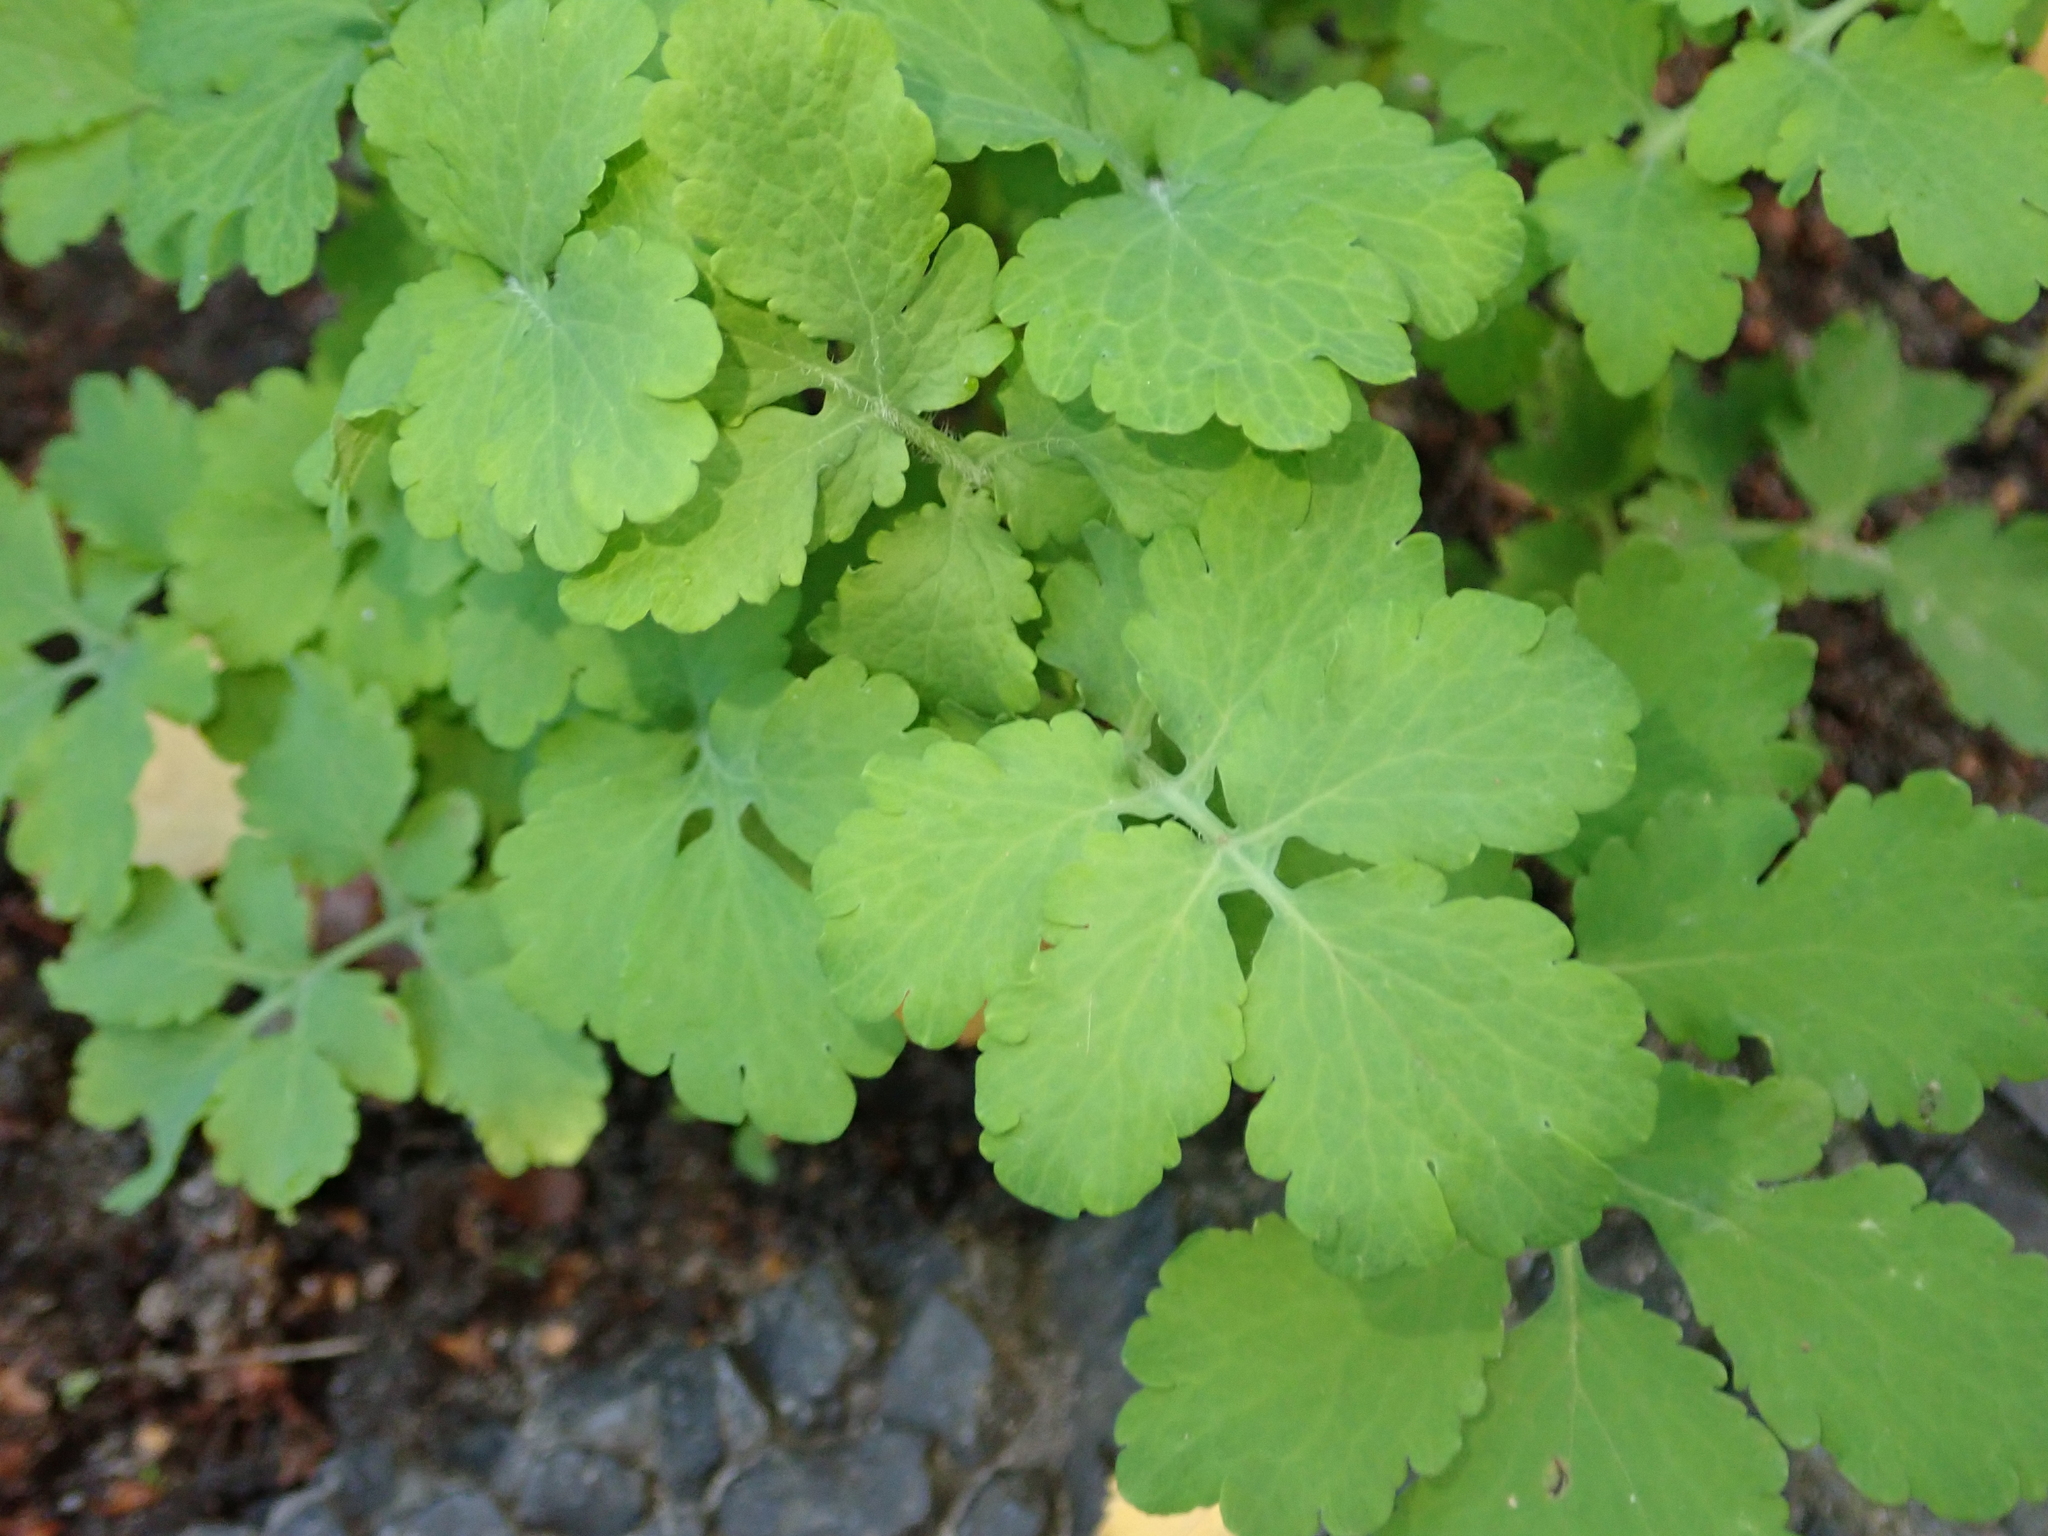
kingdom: Plantae
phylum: Tracheophyta
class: Magnoliopsida
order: Ranunculales
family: Papaveraceae
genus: Chelidonium
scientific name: Chelidonium majus
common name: Greater celandine
